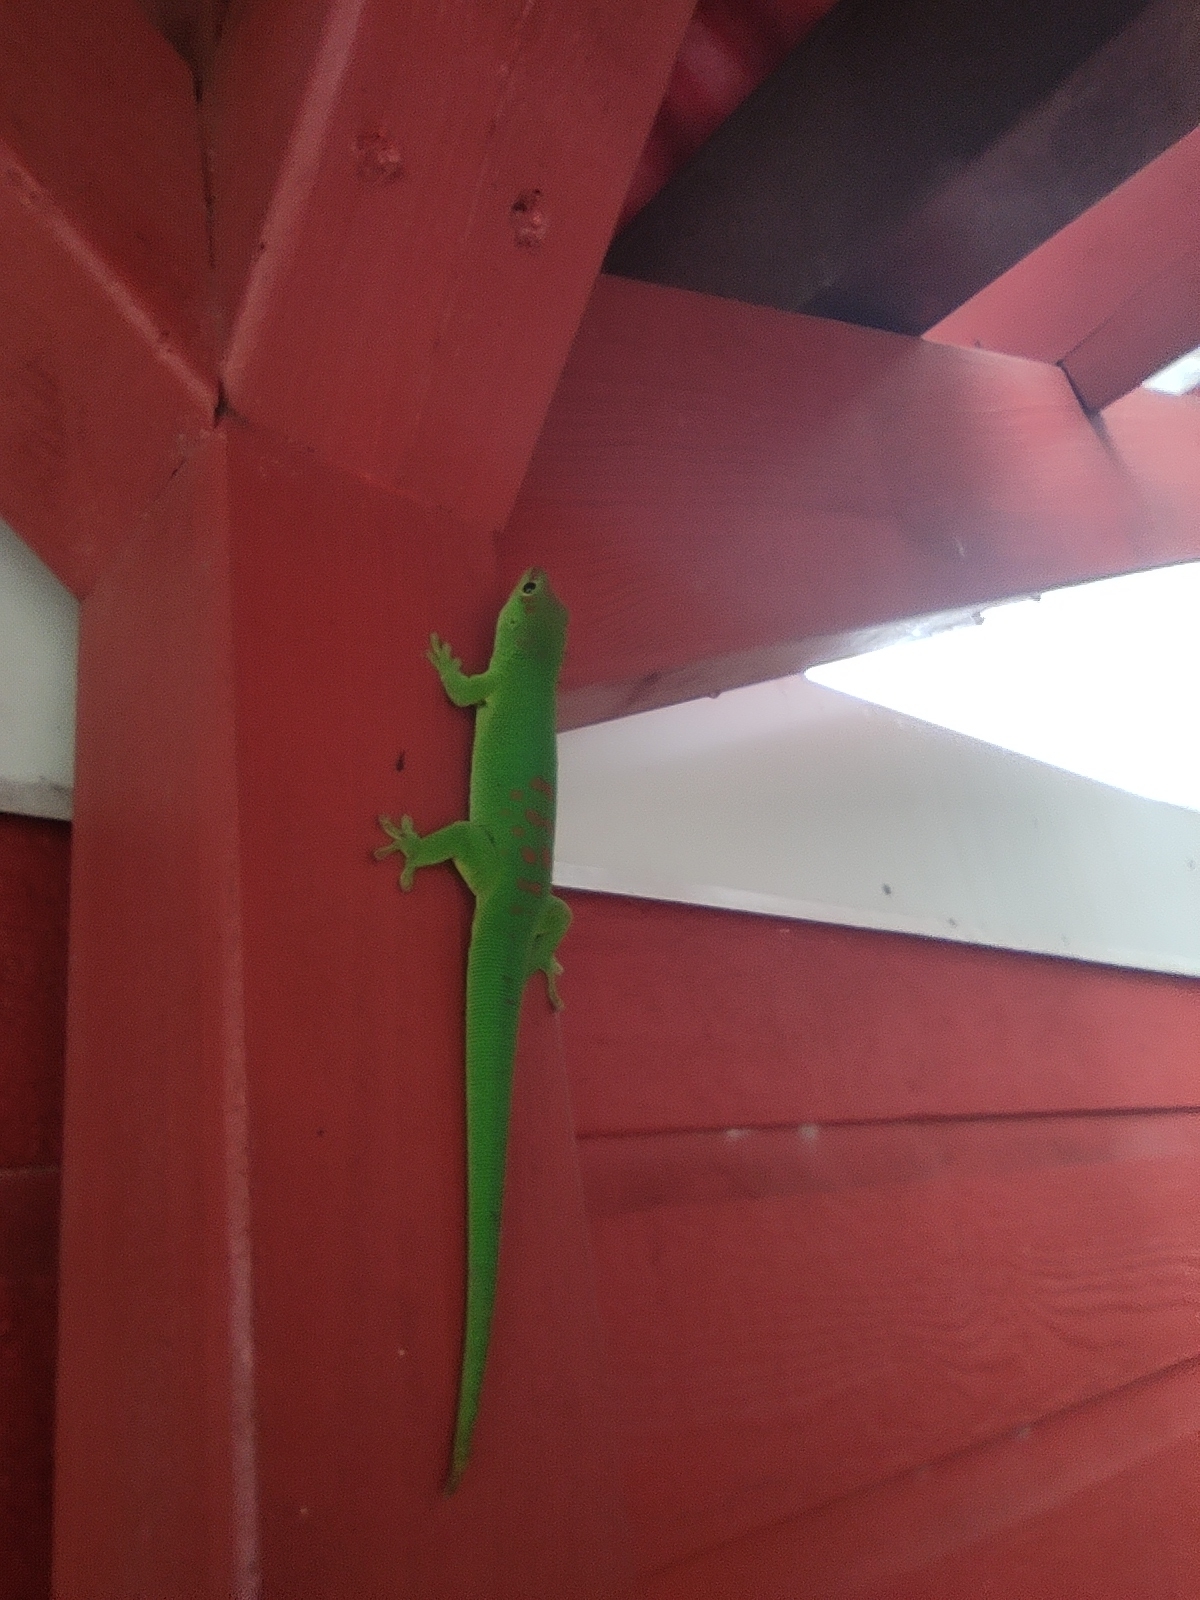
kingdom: Animalia
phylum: Chordata
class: Squamata
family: Gekkonidae
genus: Phelsuma
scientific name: Phelsuma grandis
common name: Madagascar giant day gecko
